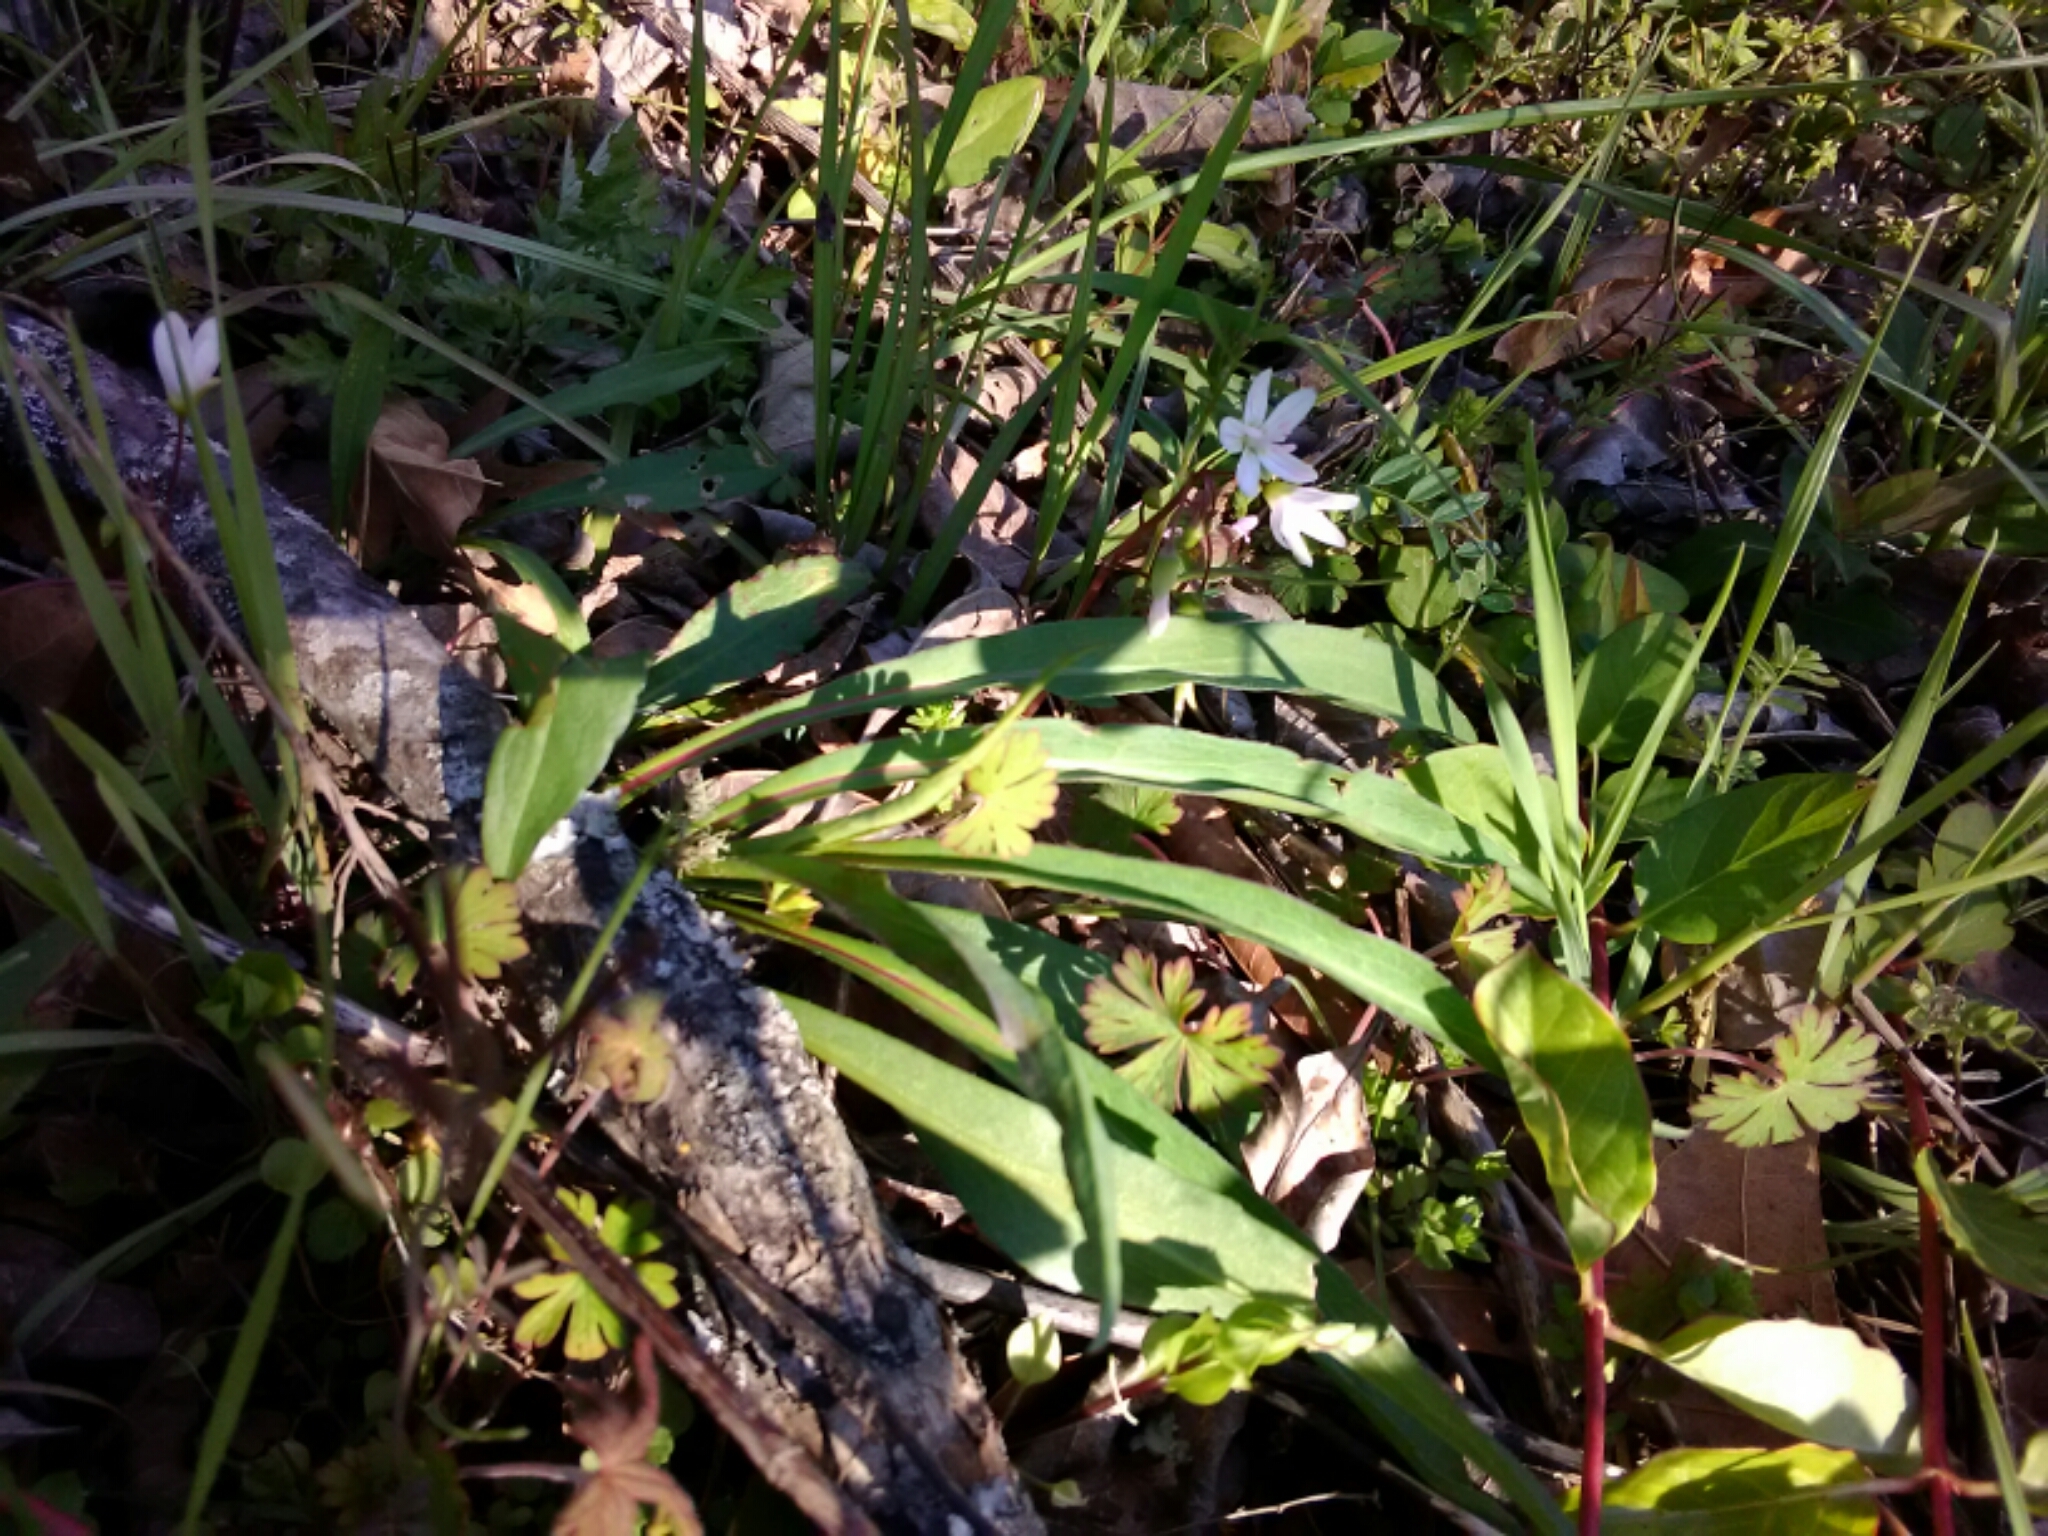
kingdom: Plantae
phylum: Tracheophyta
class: Magnoliopsida
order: Caryophyllales
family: Montiaceae
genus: Claytonia
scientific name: Claytonia virginica
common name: Virginia springbeauty
